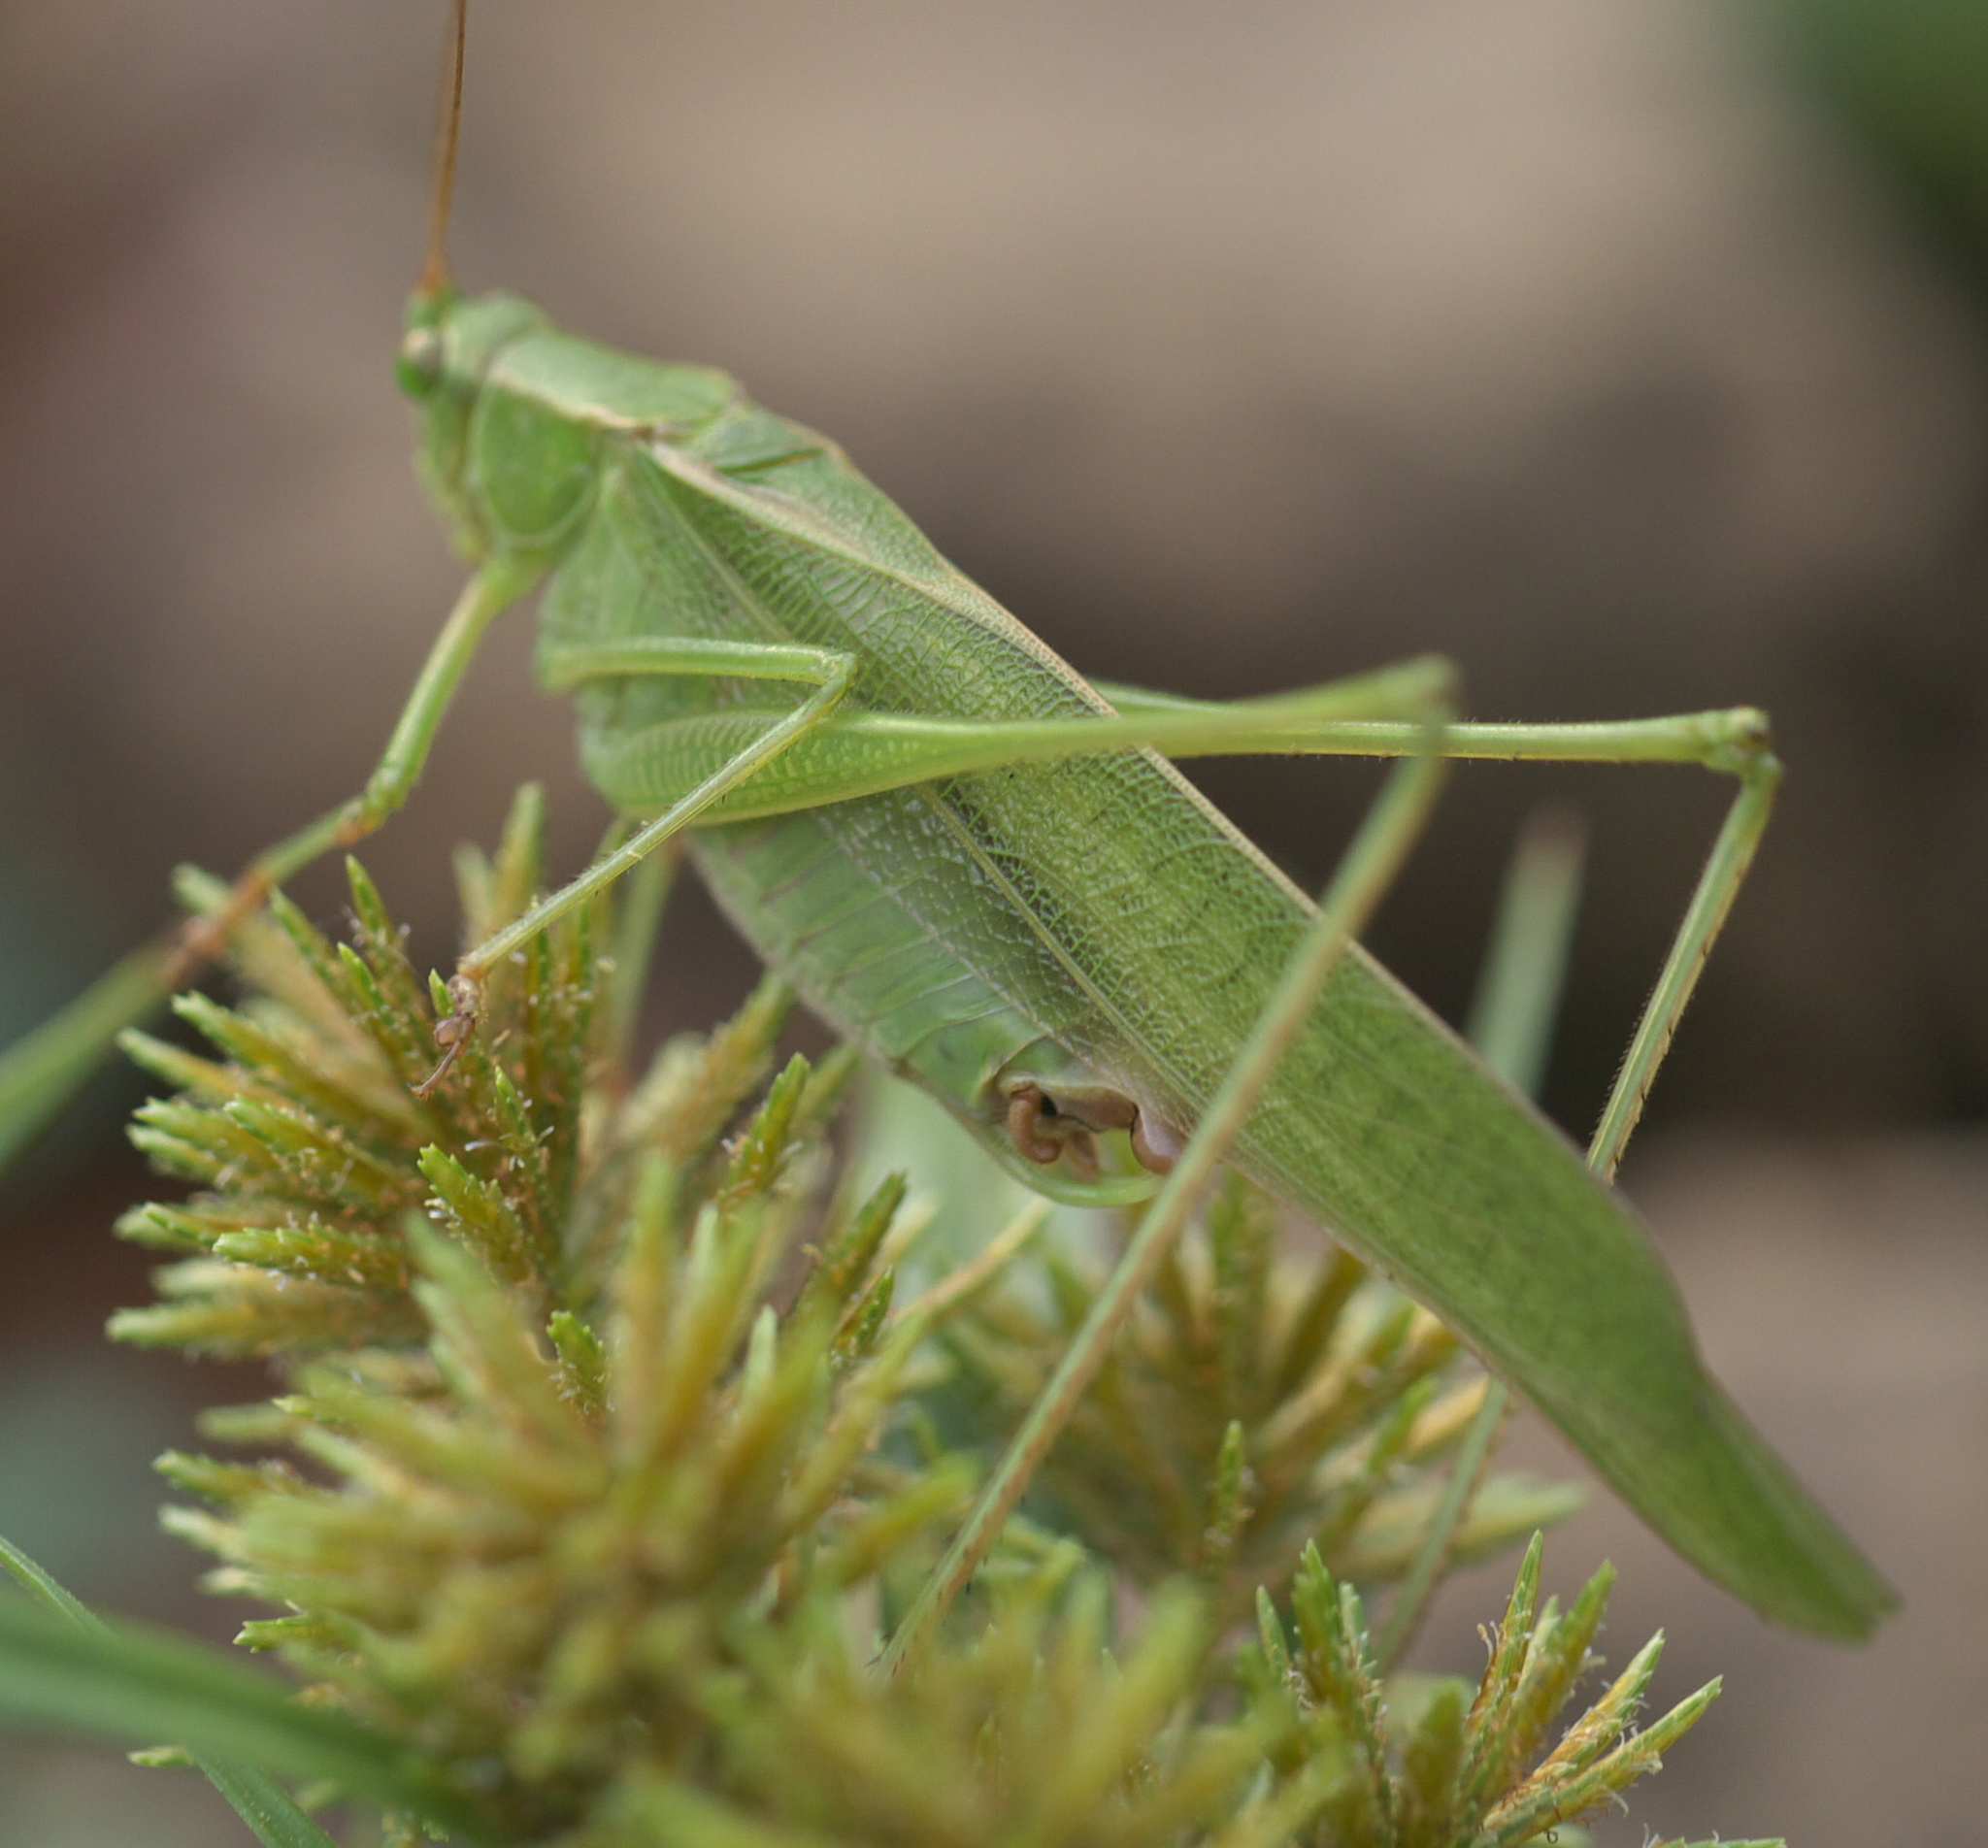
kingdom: Animalia
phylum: Arthropoda
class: Insecta
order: Orthoptera
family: Tettigoniidae
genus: Scudderia
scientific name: Scudderia furcata
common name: Fork-tailed bush katydid
